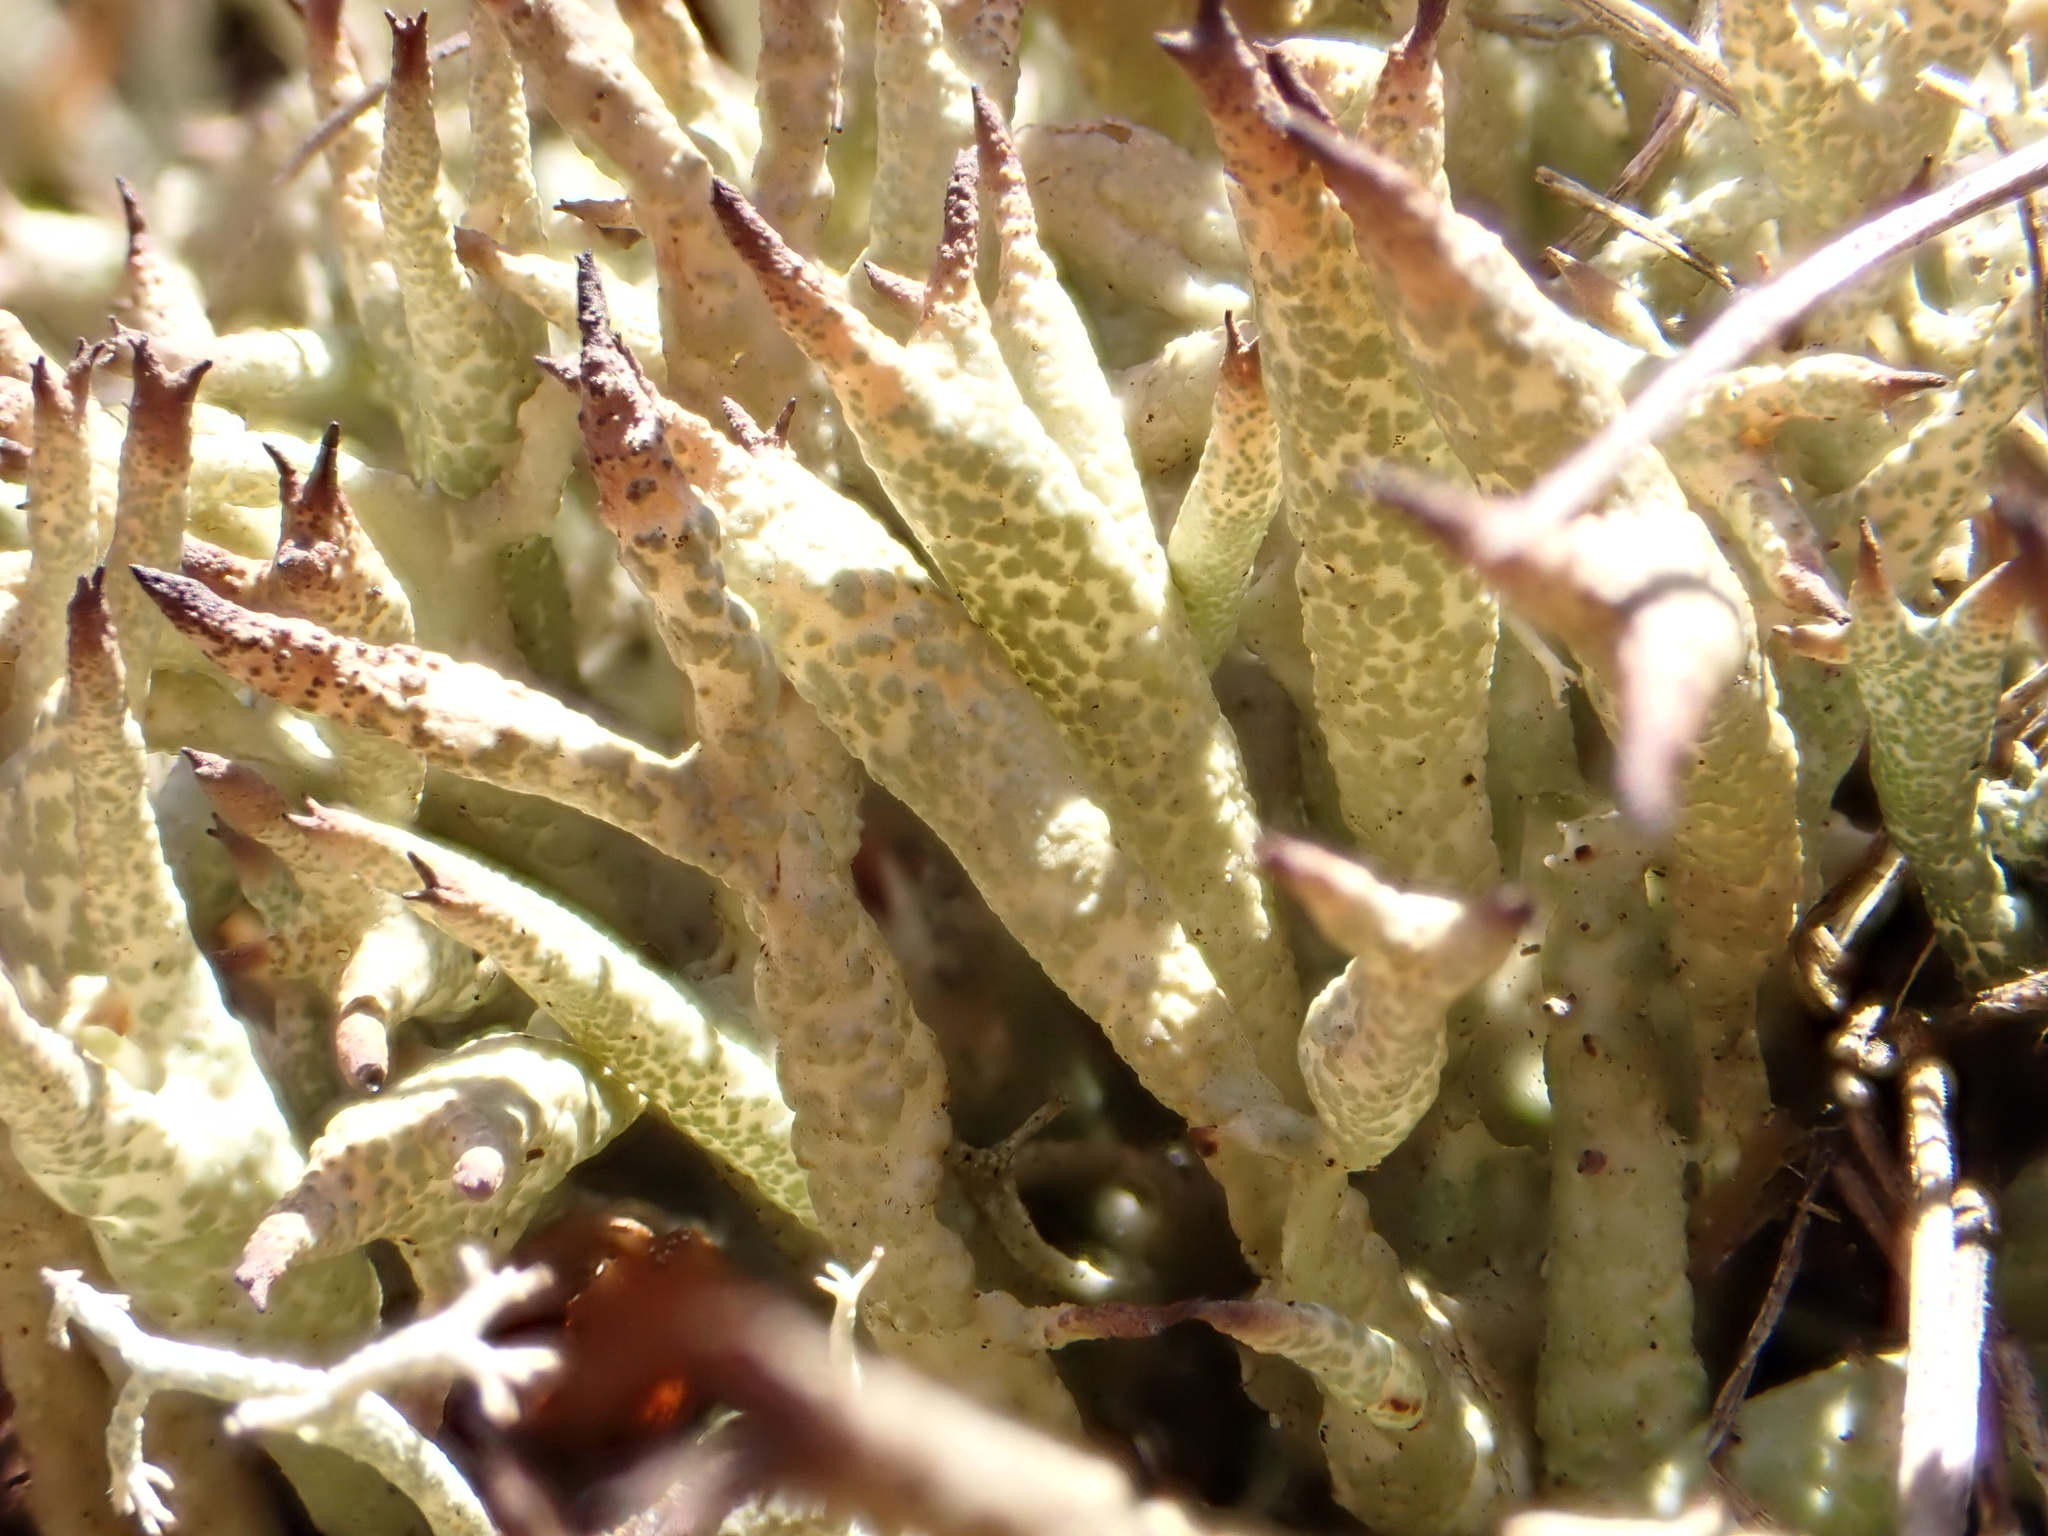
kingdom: Fungi
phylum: Ascomycota
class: Lecanoromycetes
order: Lecanorales
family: Cladoniaceae
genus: Cladonia
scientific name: Cladonia uncialis
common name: Thorn lichen
